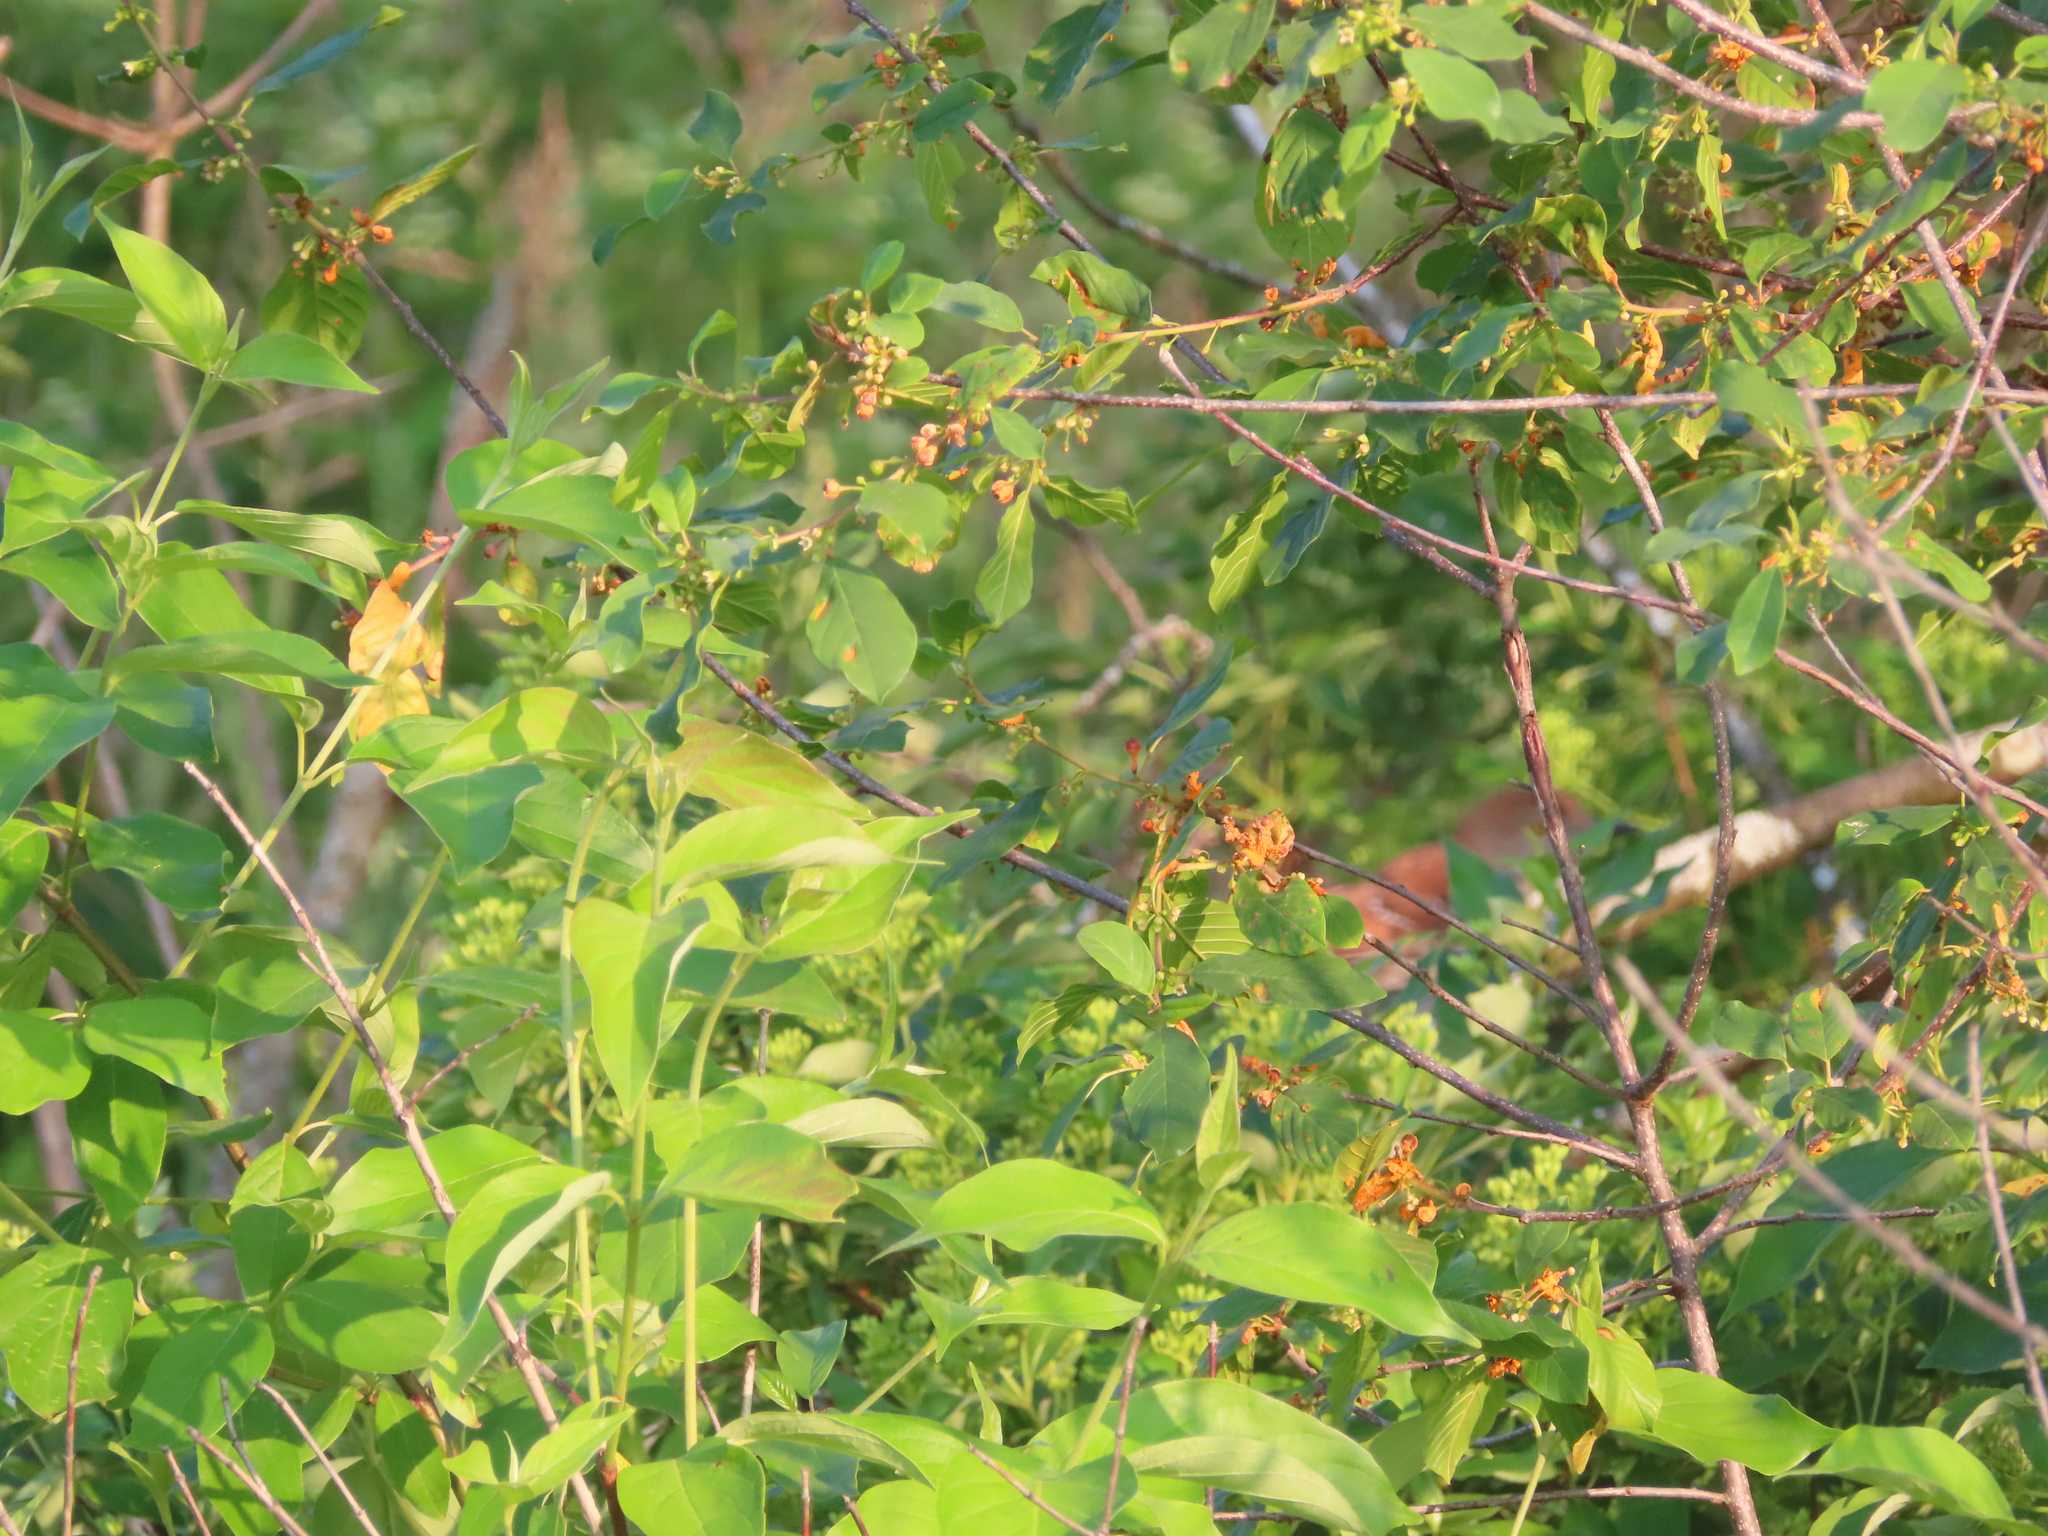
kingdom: Plantae
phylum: Tracheophyta
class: Magnoliopsida
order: Rosales
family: Rhamnaceae
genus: Frangula
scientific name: Frangula alnus
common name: Alder buckthorn
